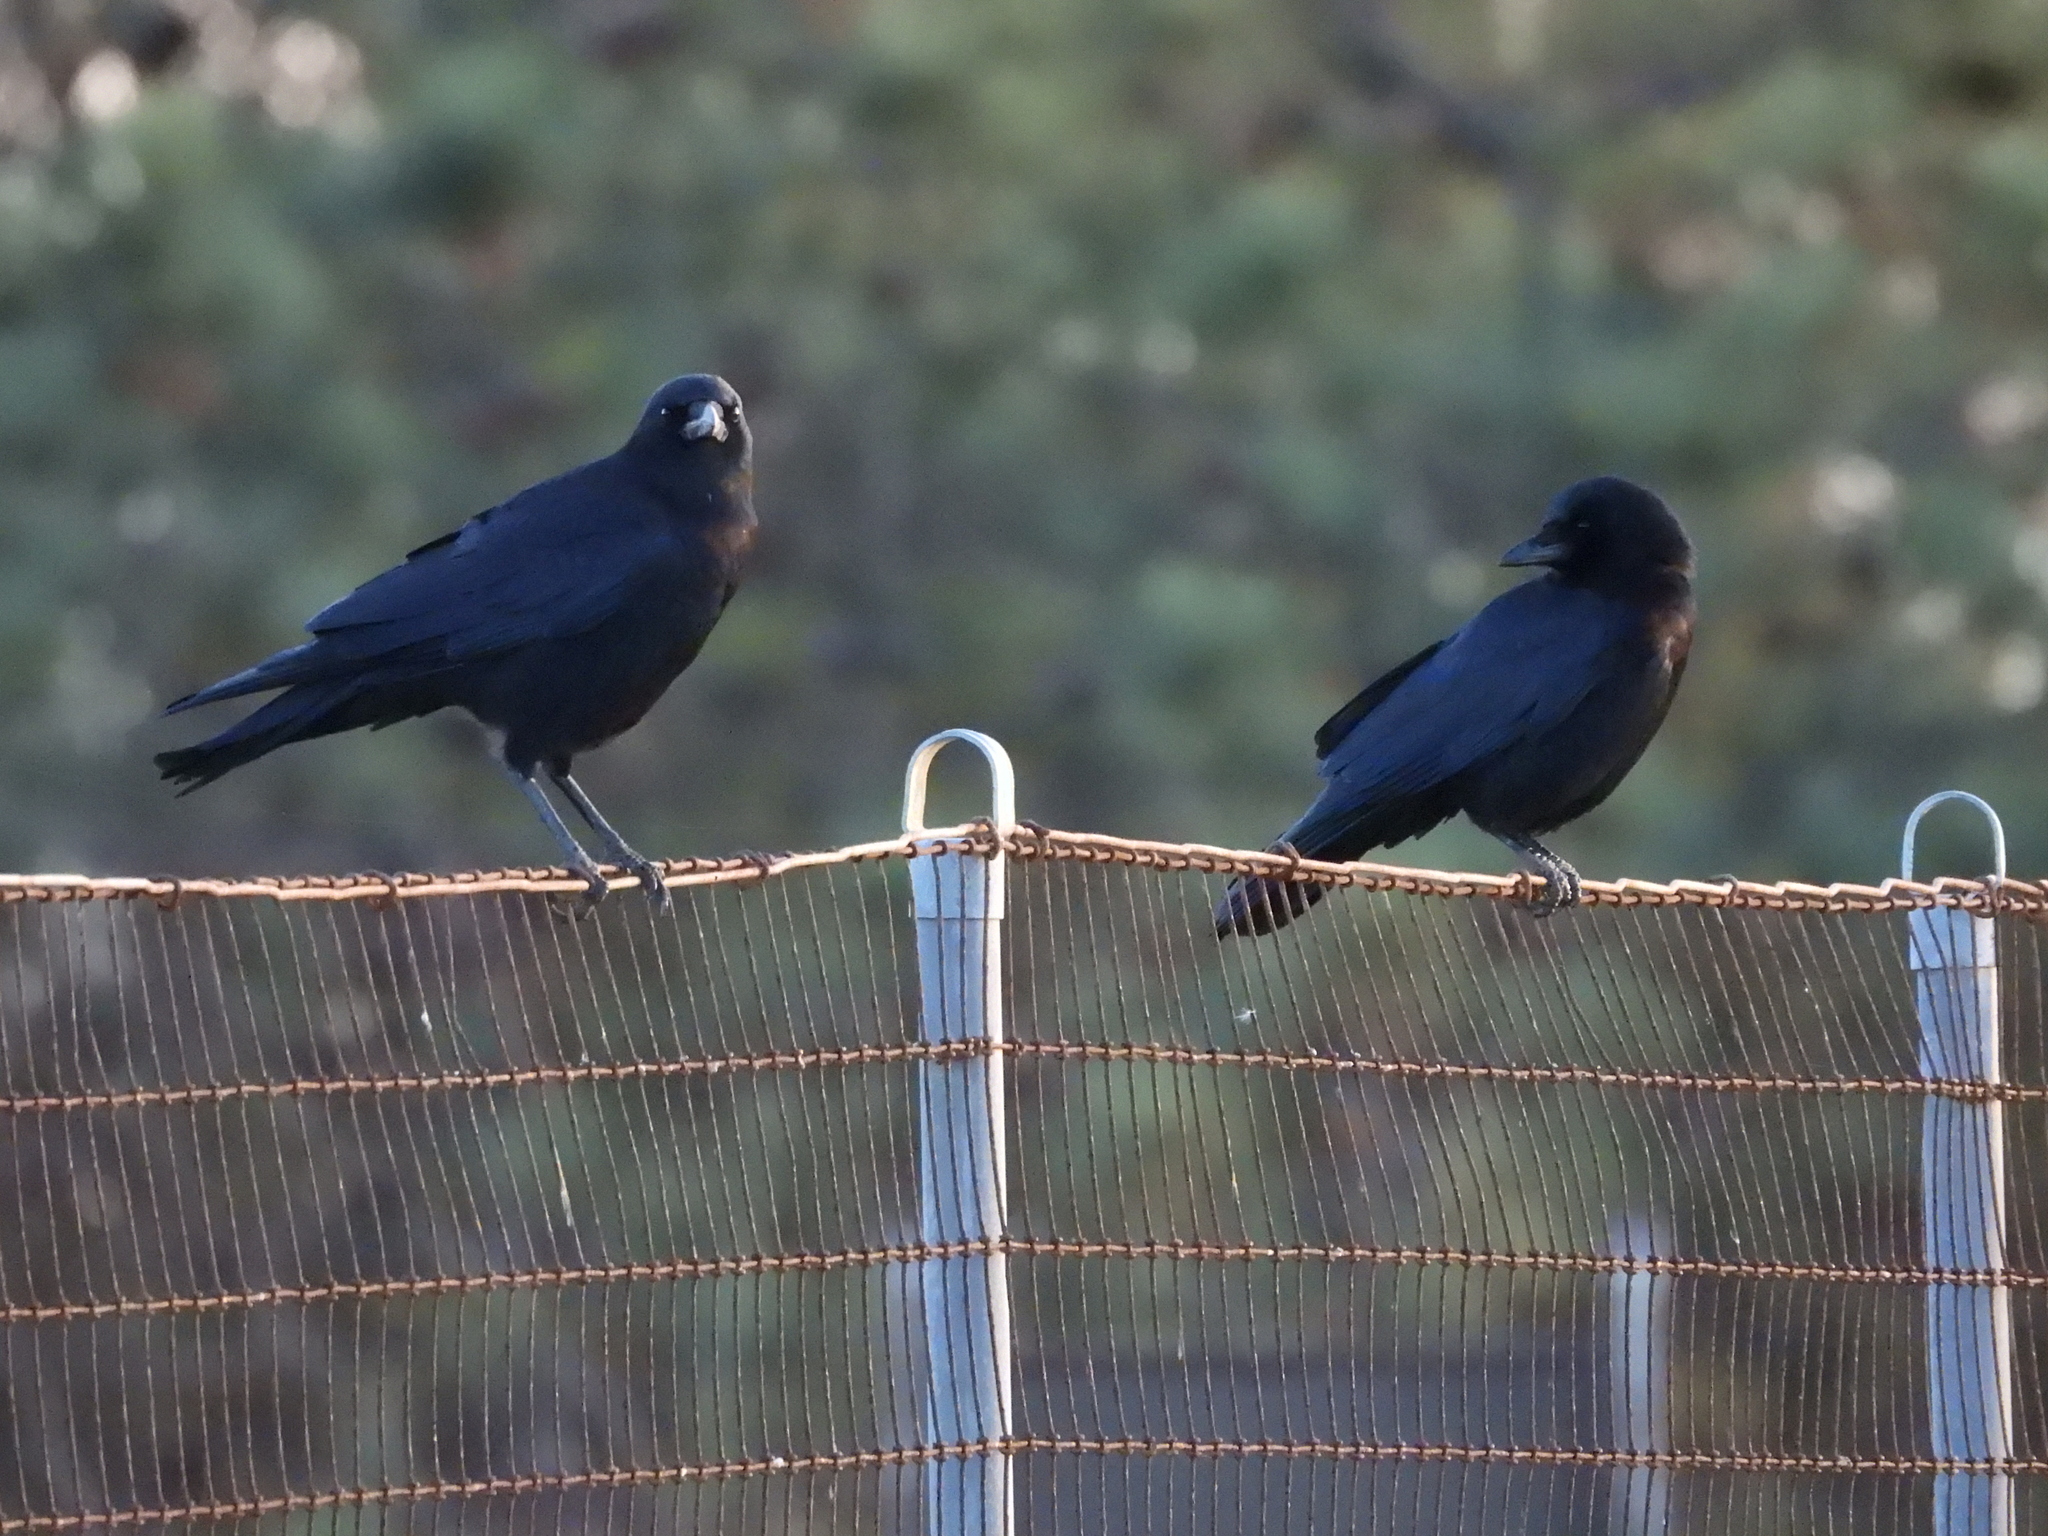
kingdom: Animalia
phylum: Chordata
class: Aves
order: Passeriformes
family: Corvidae
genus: Corvus
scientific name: Corvus brachyrhynchos
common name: American crow
